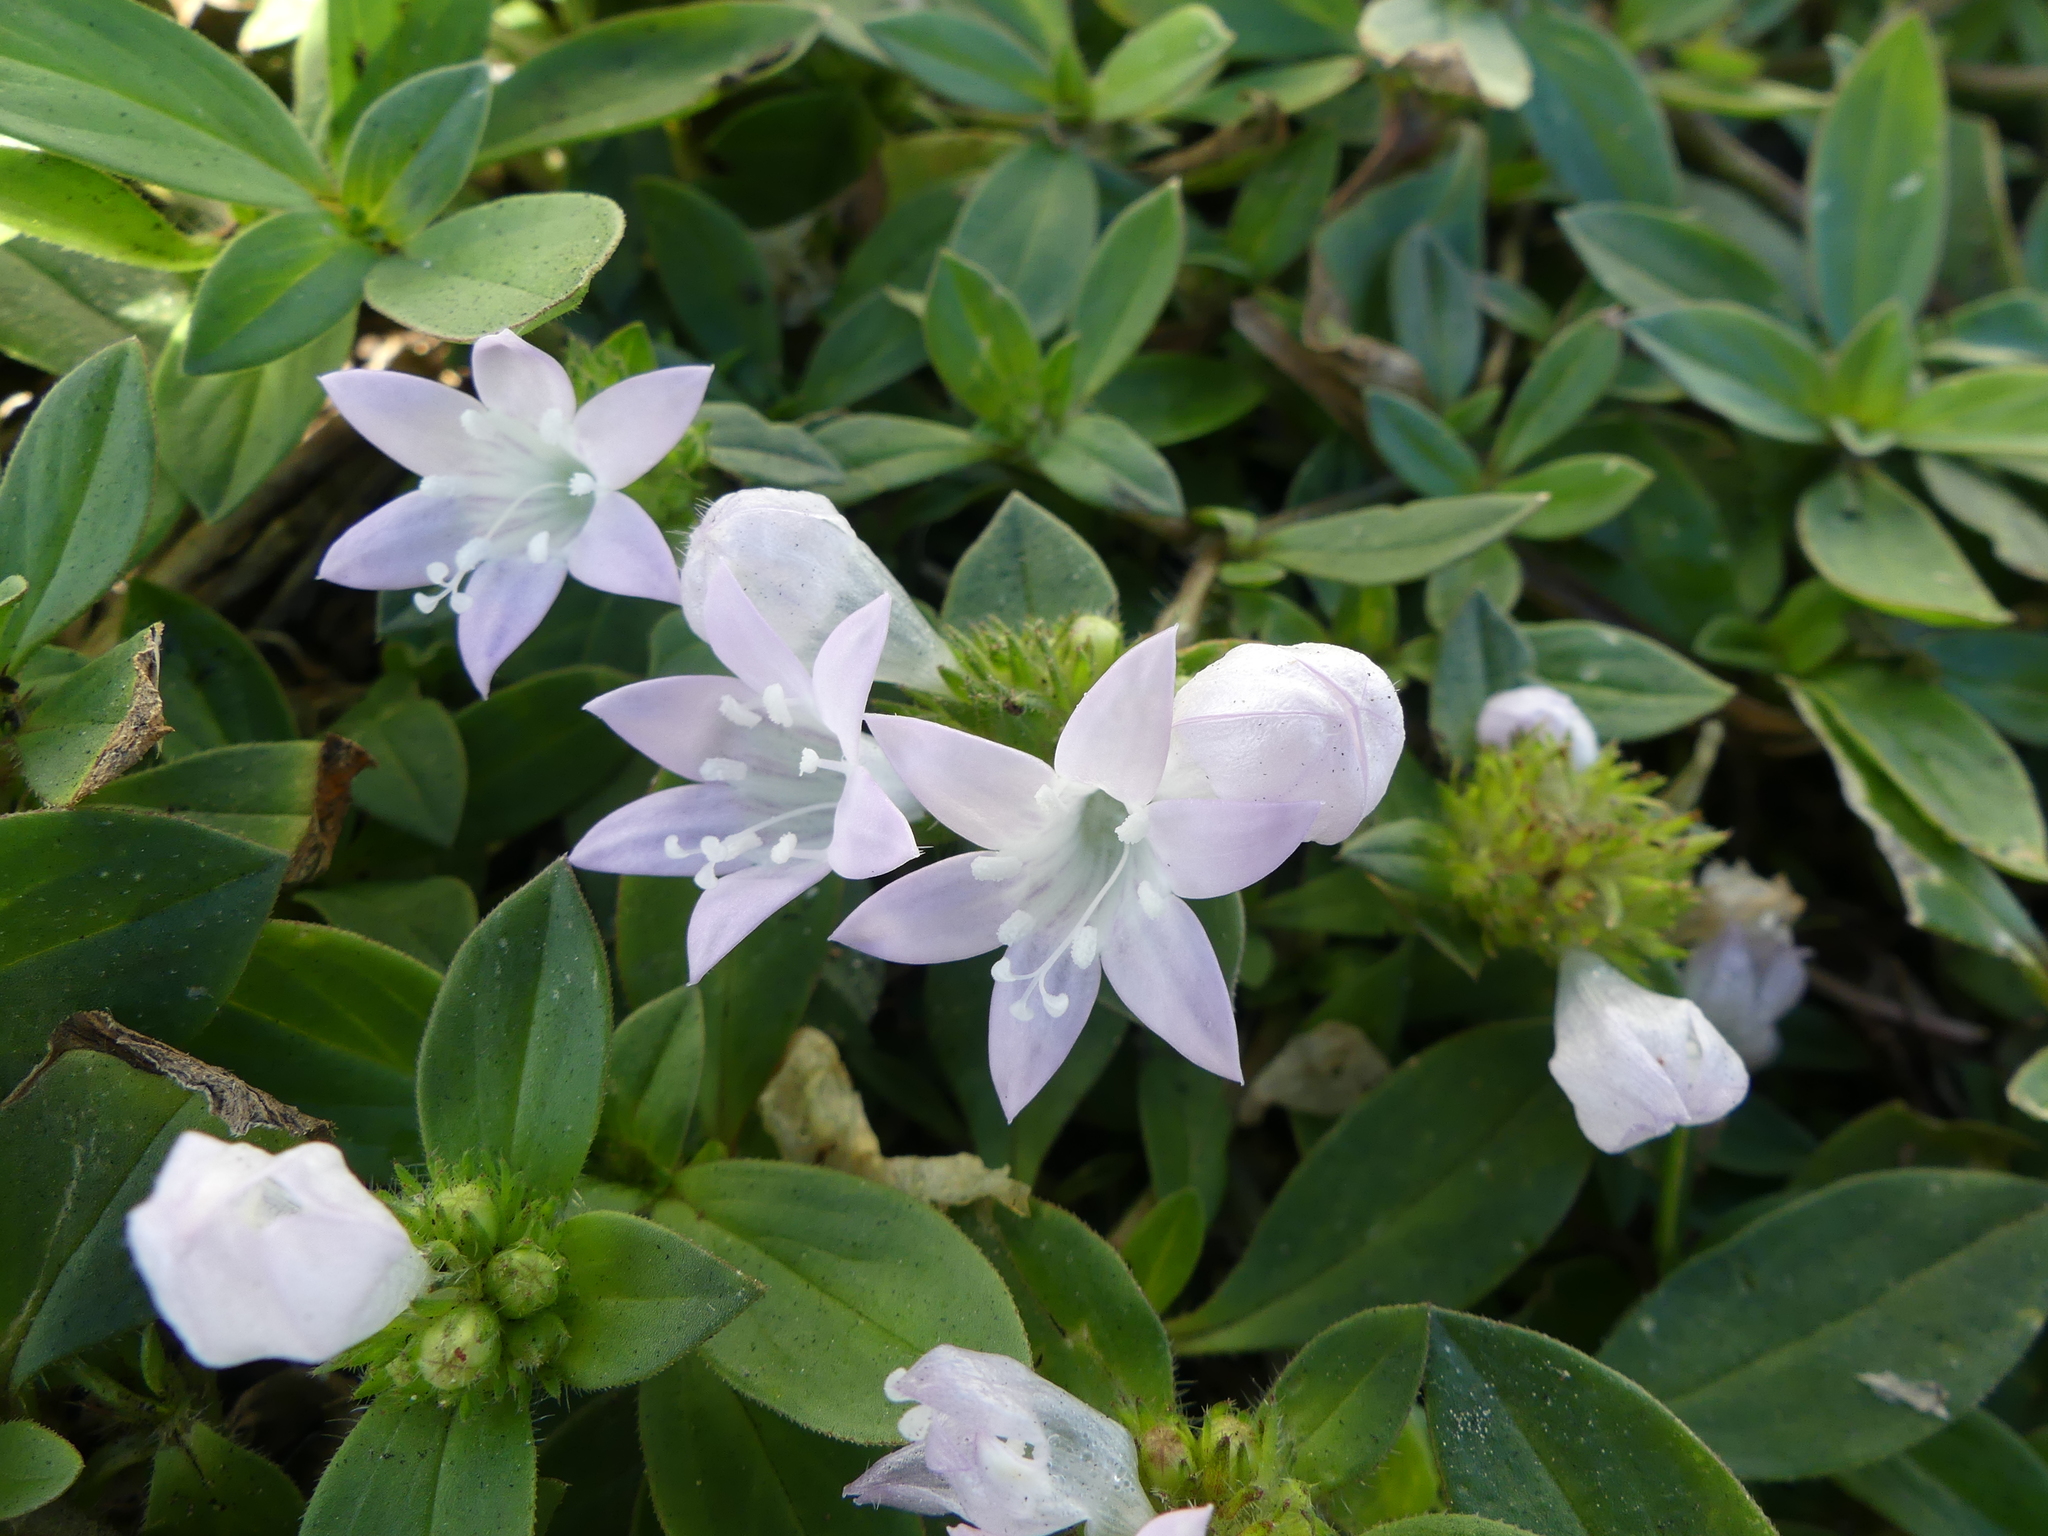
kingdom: Plantae
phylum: Tracheophyta
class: Magnoliopsida
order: Gentianales
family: Rubiaceae
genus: Richardia
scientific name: Richardia grandiflora
